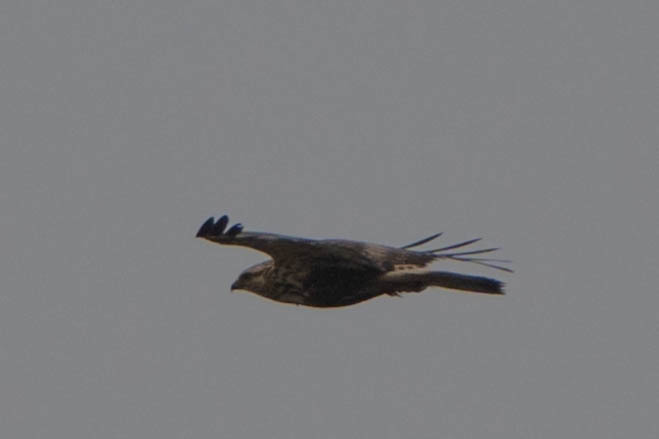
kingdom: Animalia
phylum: Chordata
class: Aves
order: Accipitriformes
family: Accipitridae
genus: Buteo
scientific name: Buteo lagopus
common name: Rough-legged buzzard
